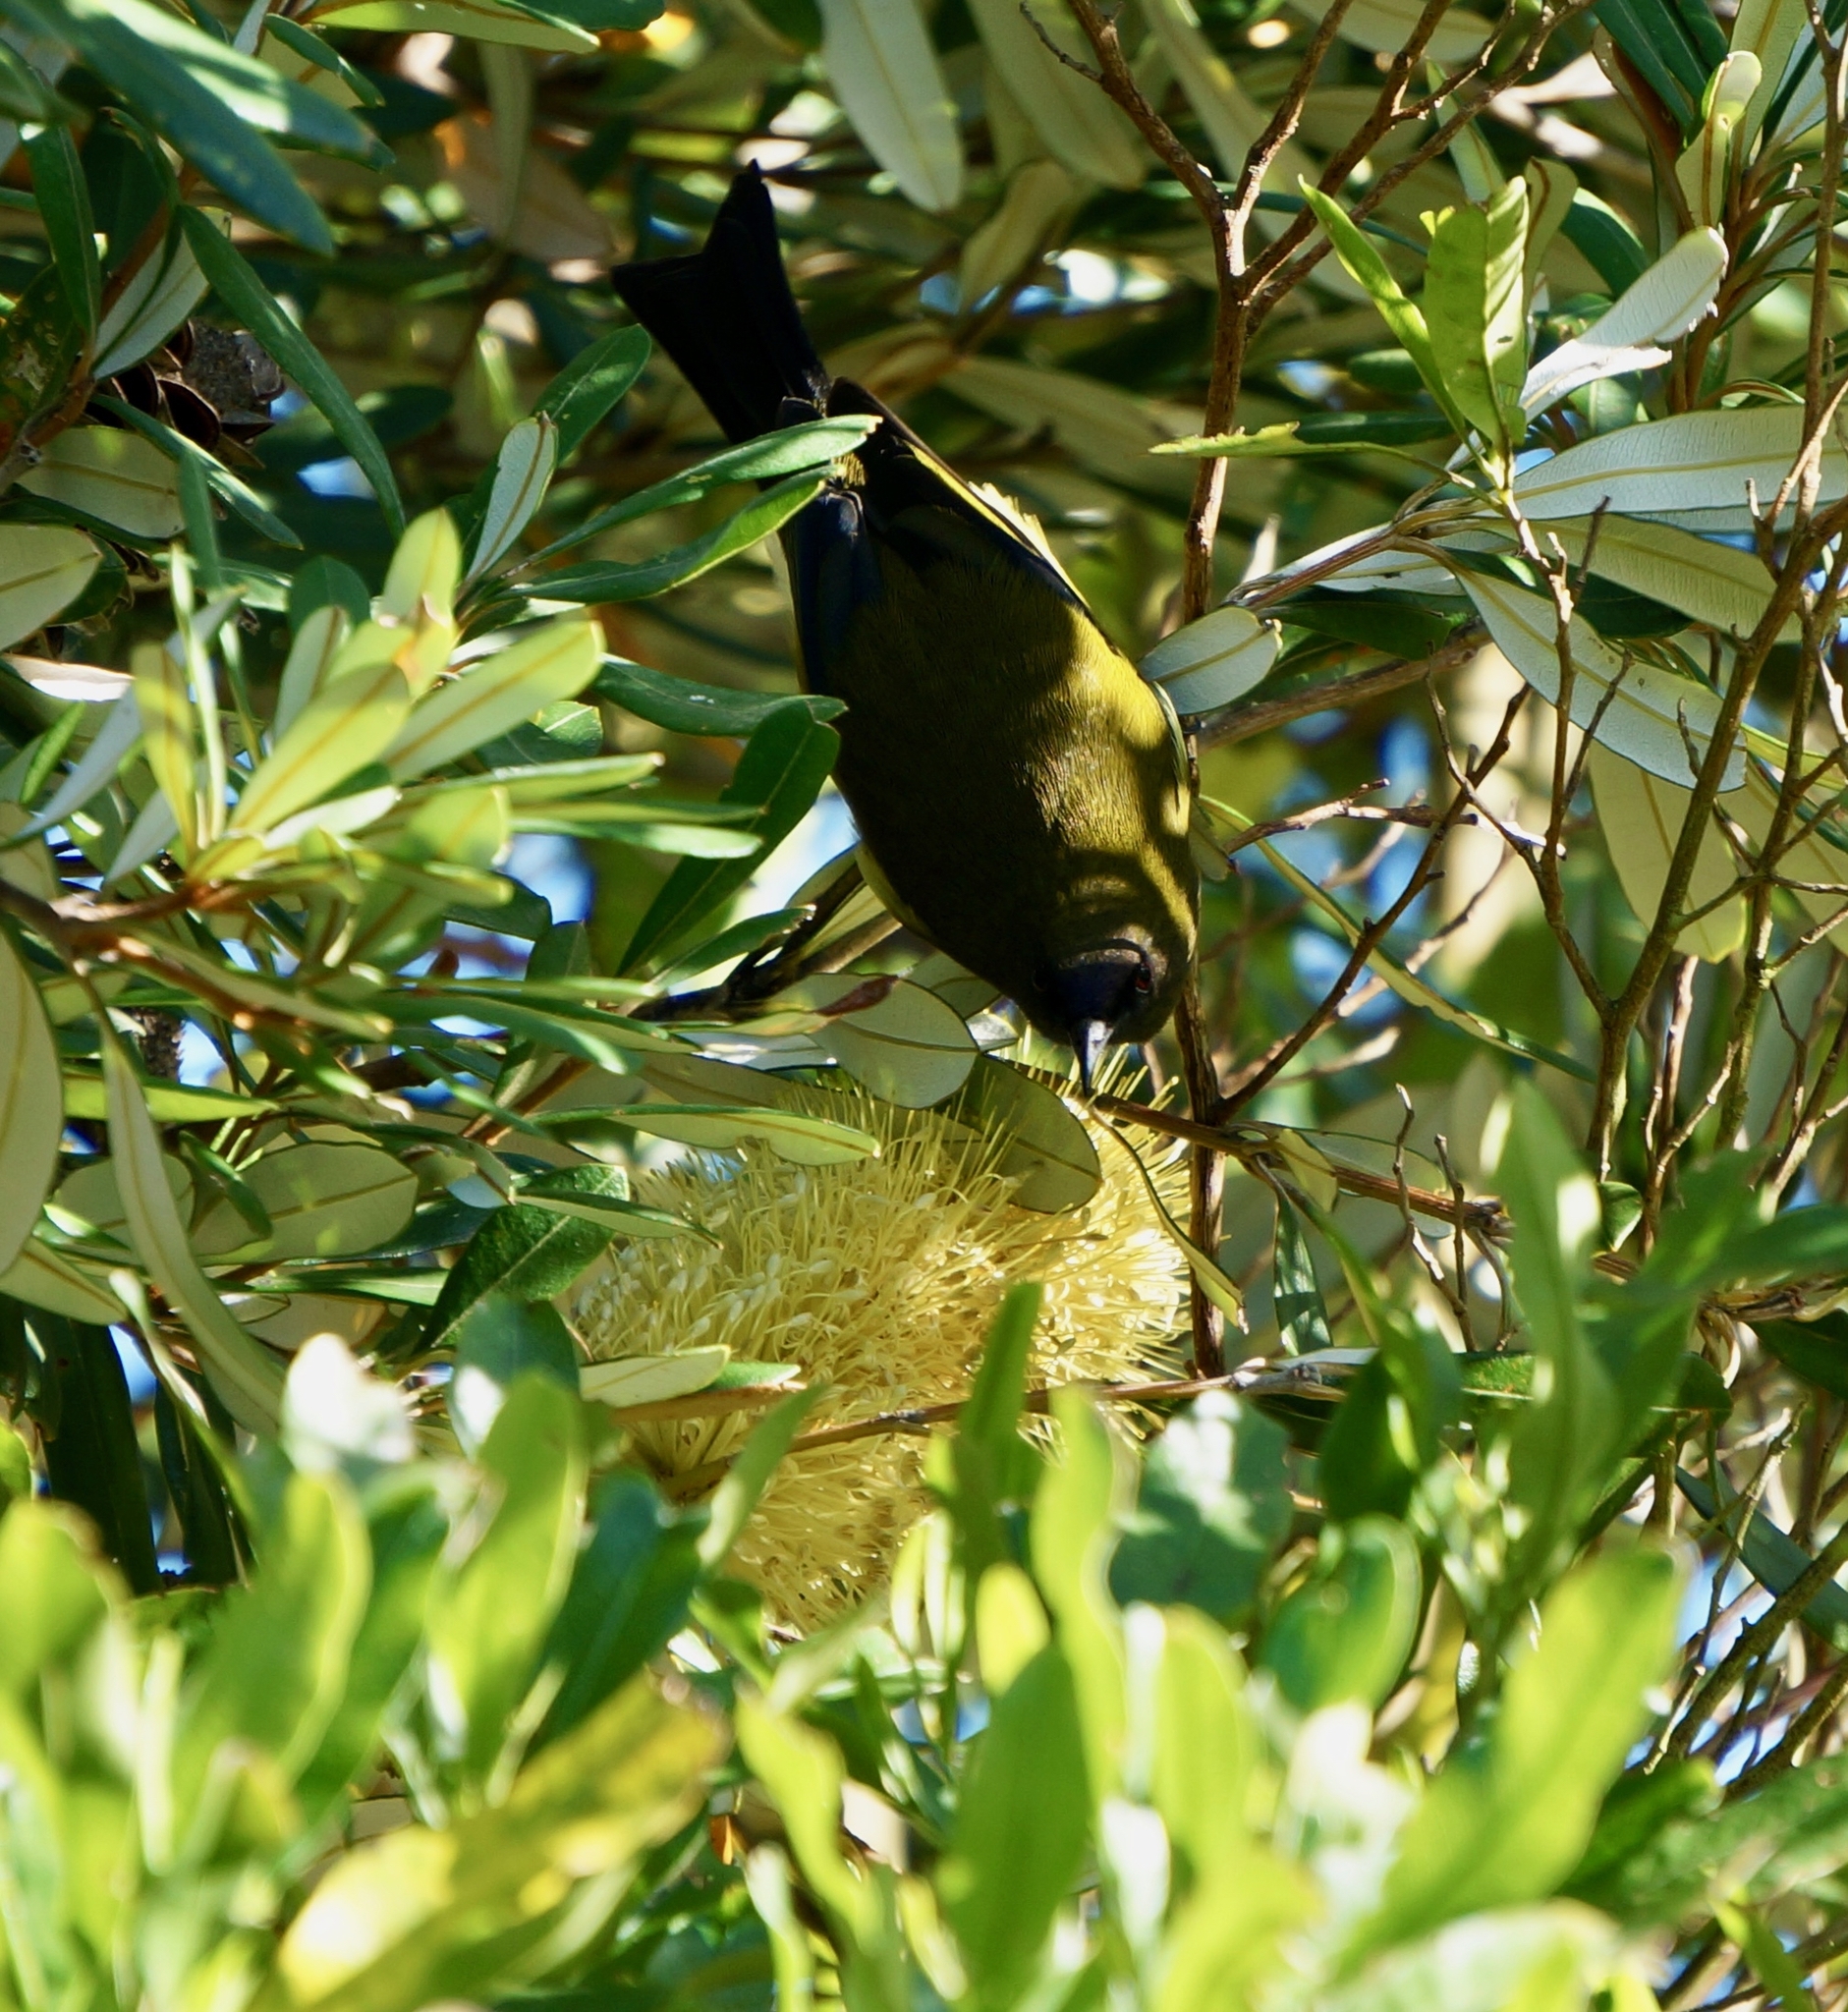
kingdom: Animalia
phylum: Chordata
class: Aves
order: Passeriformes
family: Meliphagidae
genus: Anthornis
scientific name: Anthornis melanura
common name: New zealand bellbird
